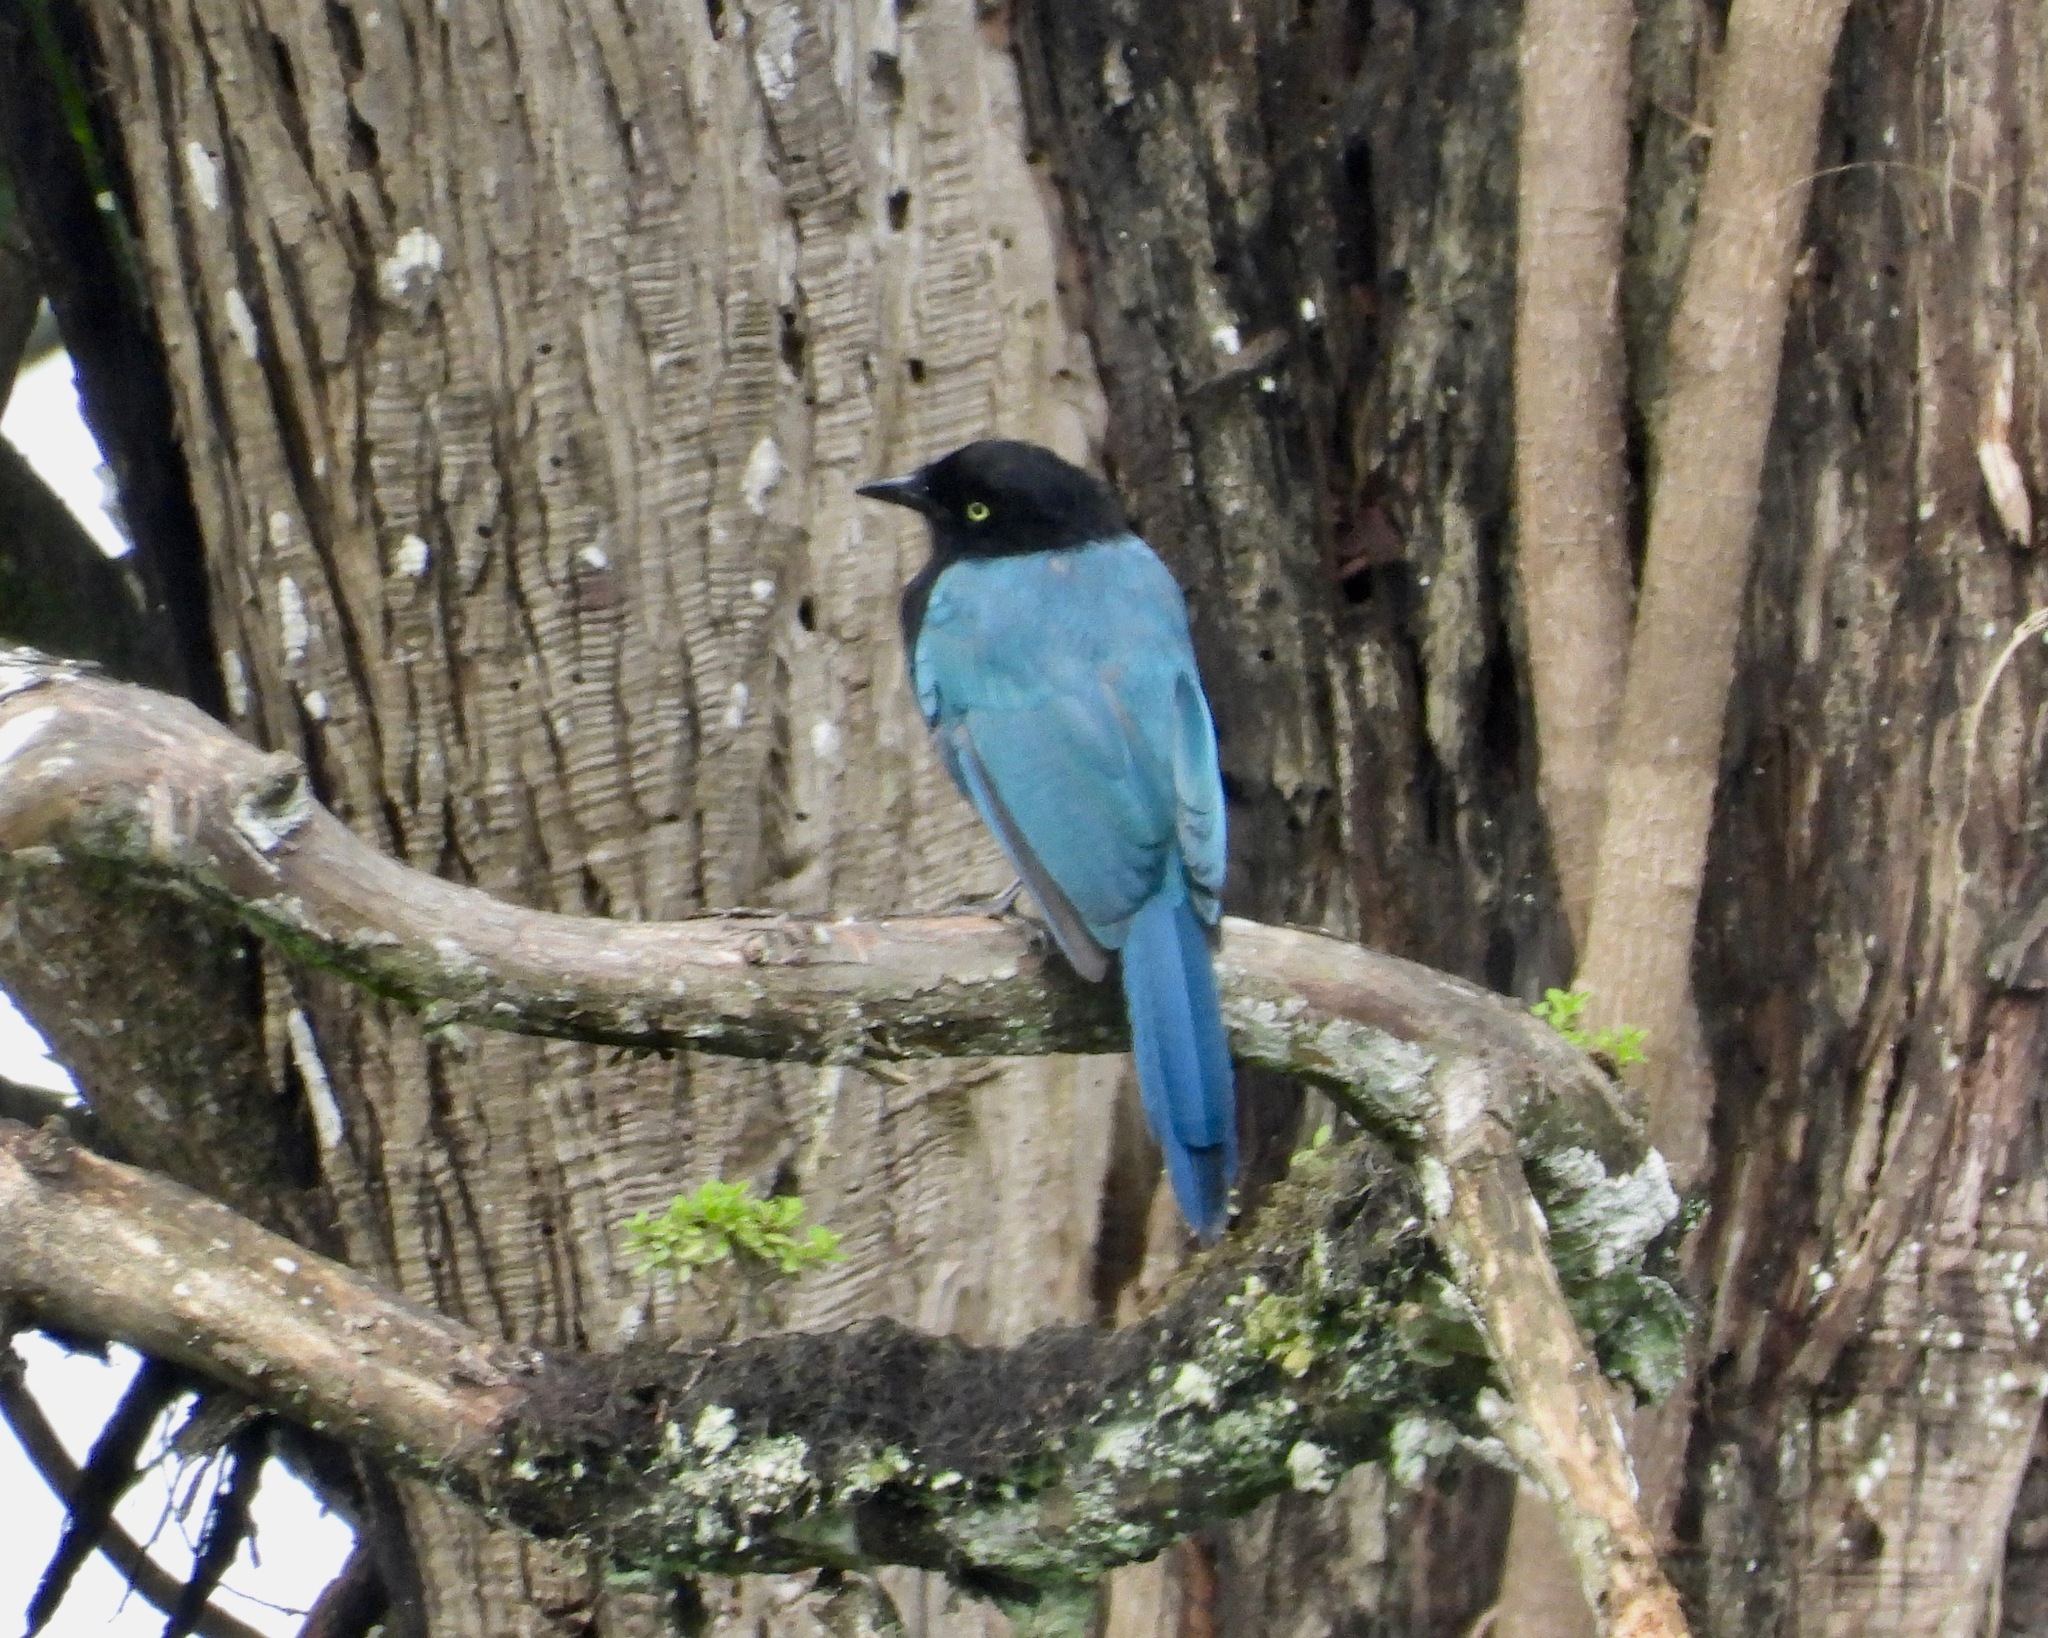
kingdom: Animalia
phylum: Chordata
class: Aves
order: Passeriformes
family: Corvidae
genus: Cyanocorax
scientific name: Cyanocorax melanocyaneus
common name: Bushy-crested jay
